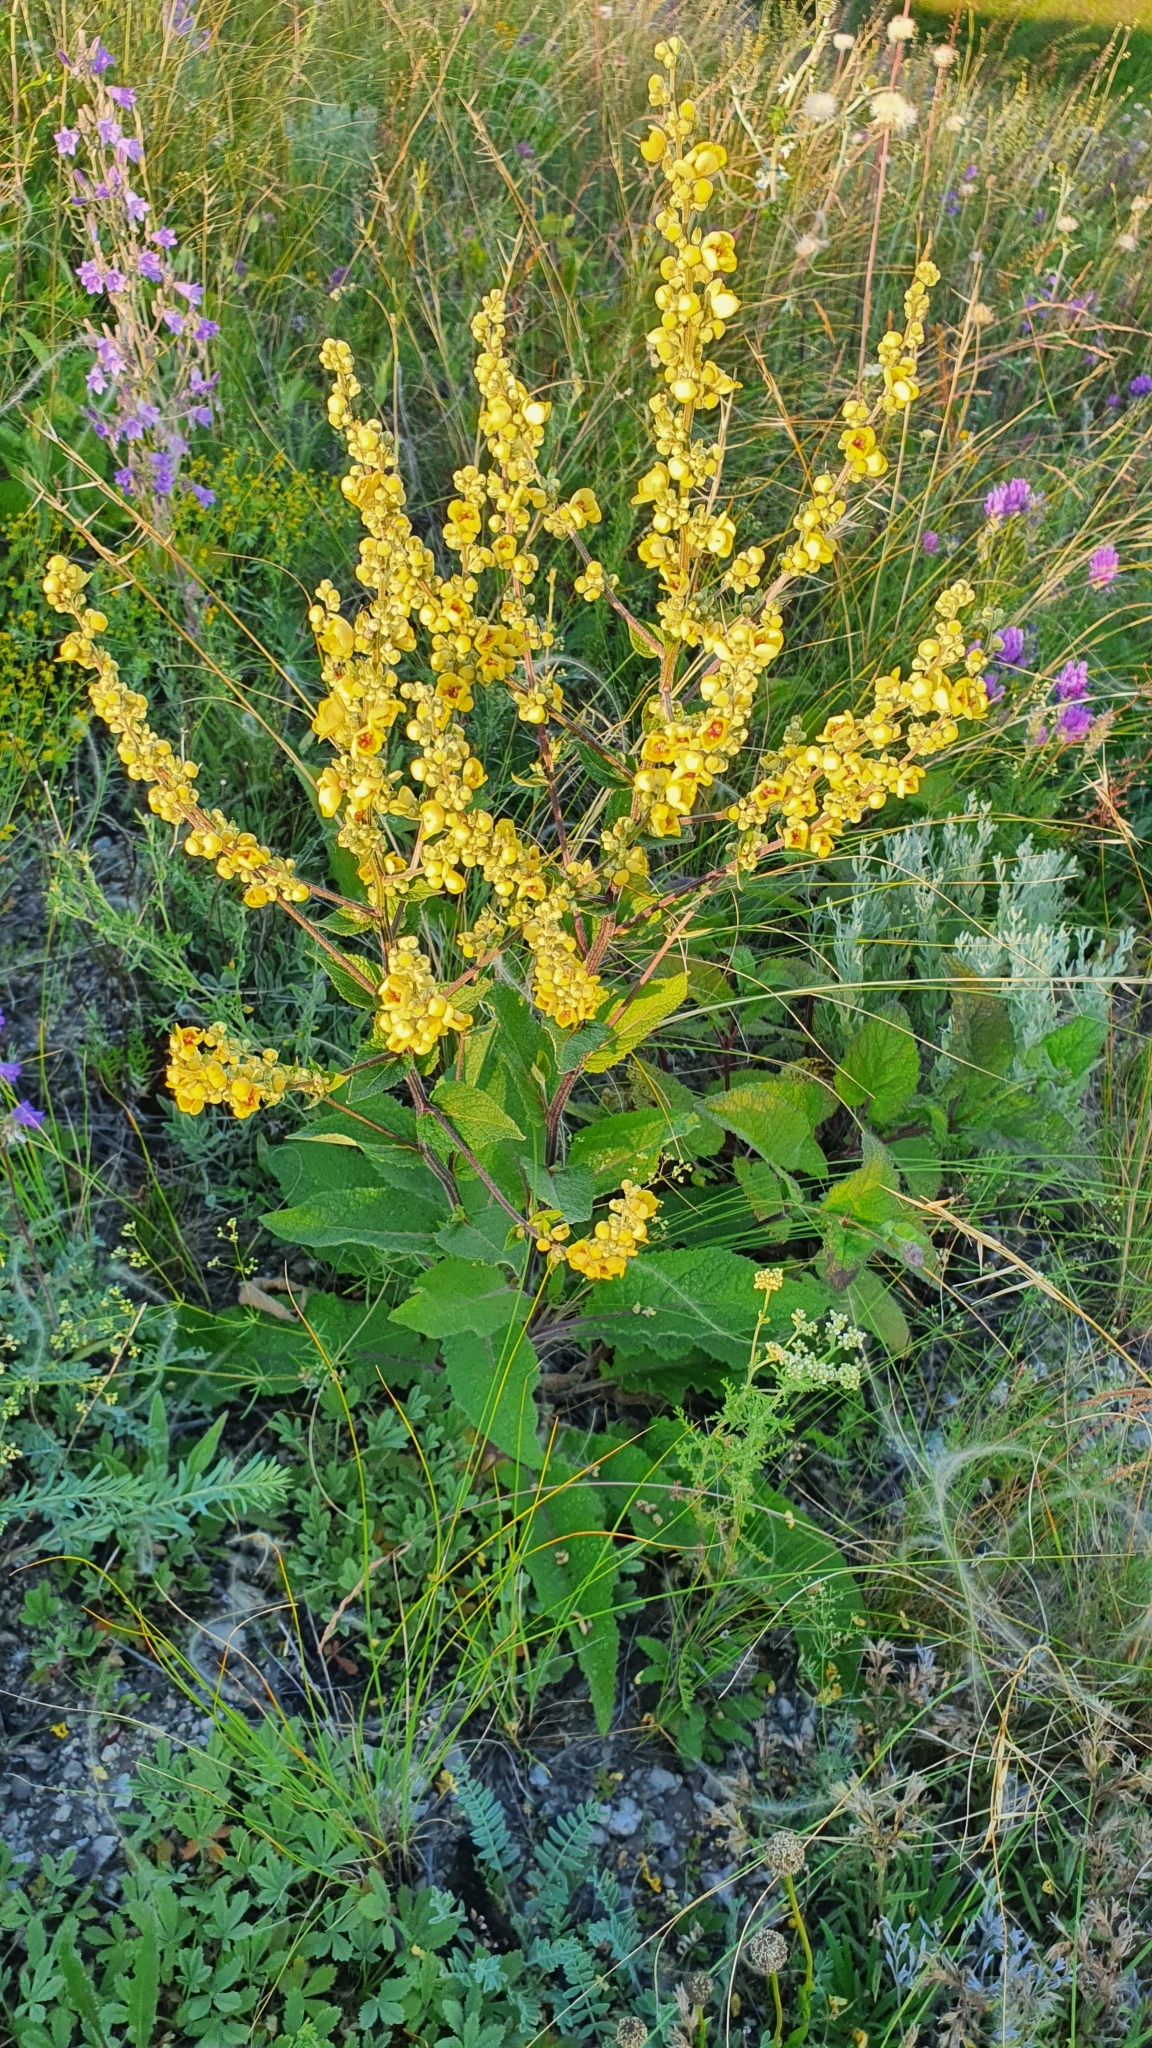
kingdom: Plantae
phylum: Tracheophyta
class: Magnoliopsida
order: Lamiales
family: Scrophulariaceae
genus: Verbascum
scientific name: Verbascum chaixii
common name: Nettle-leaved mullein
